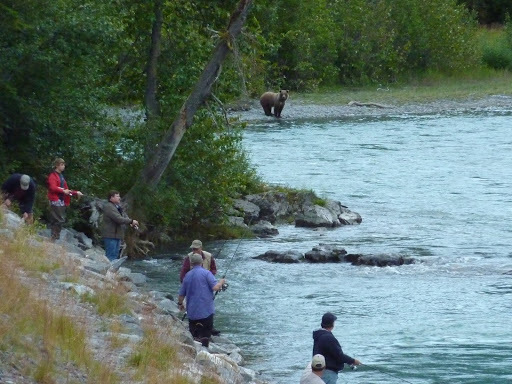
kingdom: Animalia
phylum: Chordata
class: Mammalia
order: Carnivora
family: Ursidae
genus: Ursus
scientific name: Ursus arctos
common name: Brown bear
